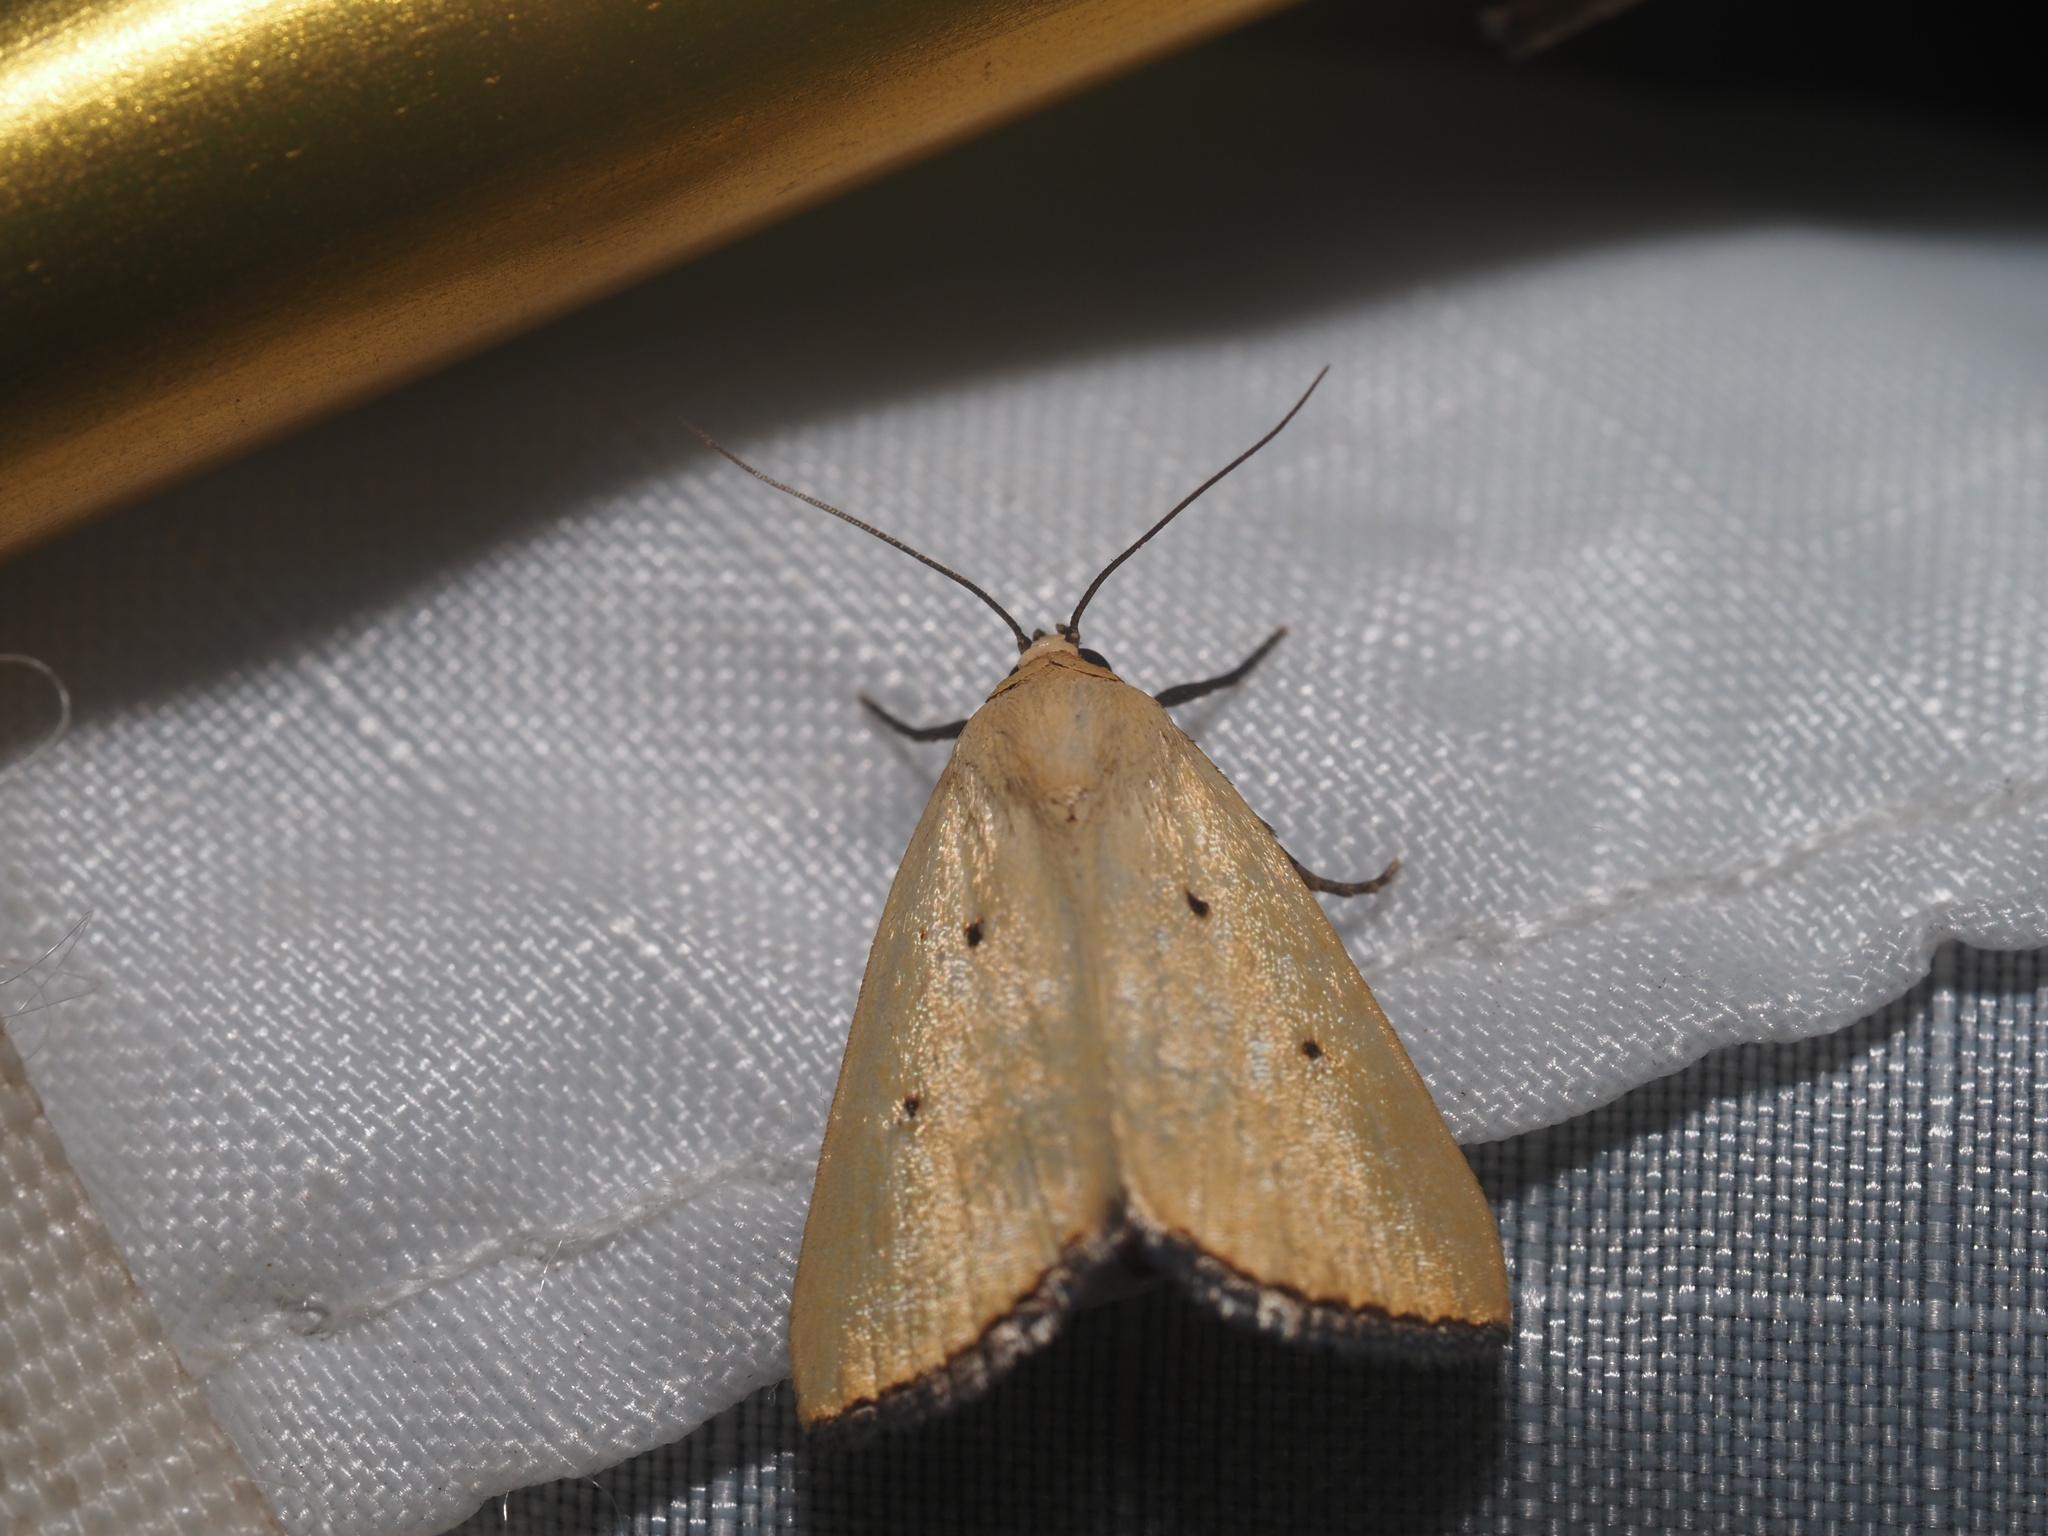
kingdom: Animalia
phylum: Arthropoda
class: Insecta
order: Lepidoptera
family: Noctuidae
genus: Marimatha
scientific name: Marimatha nigrofimbria
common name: Black-bordered lemon moth
